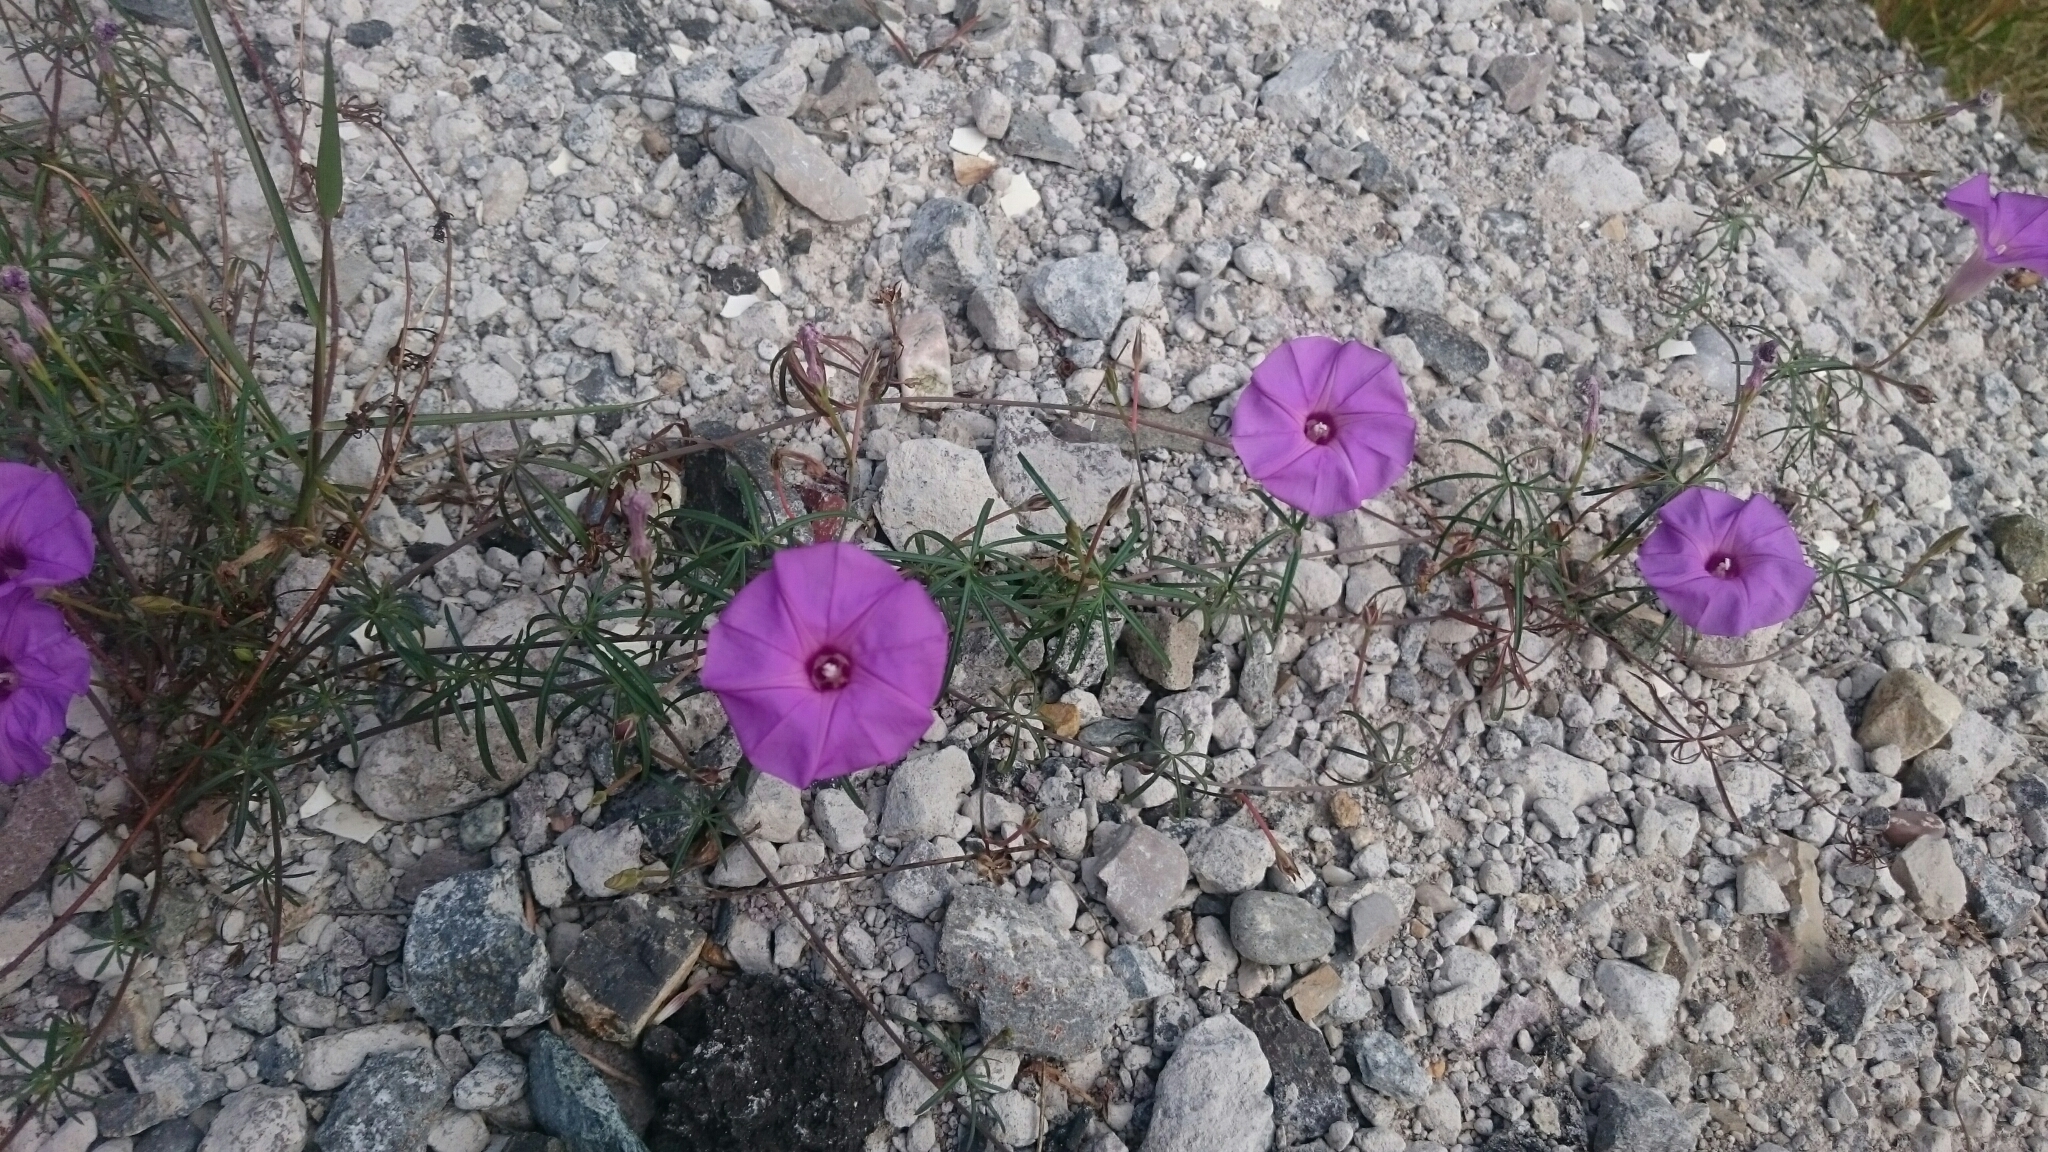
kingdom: Plantae
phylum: Tracheophyta
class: Magnoliopsida
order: Solanales
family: Convolvulaceae
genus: Ipomoea
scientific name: Ipomoea ternifolia
